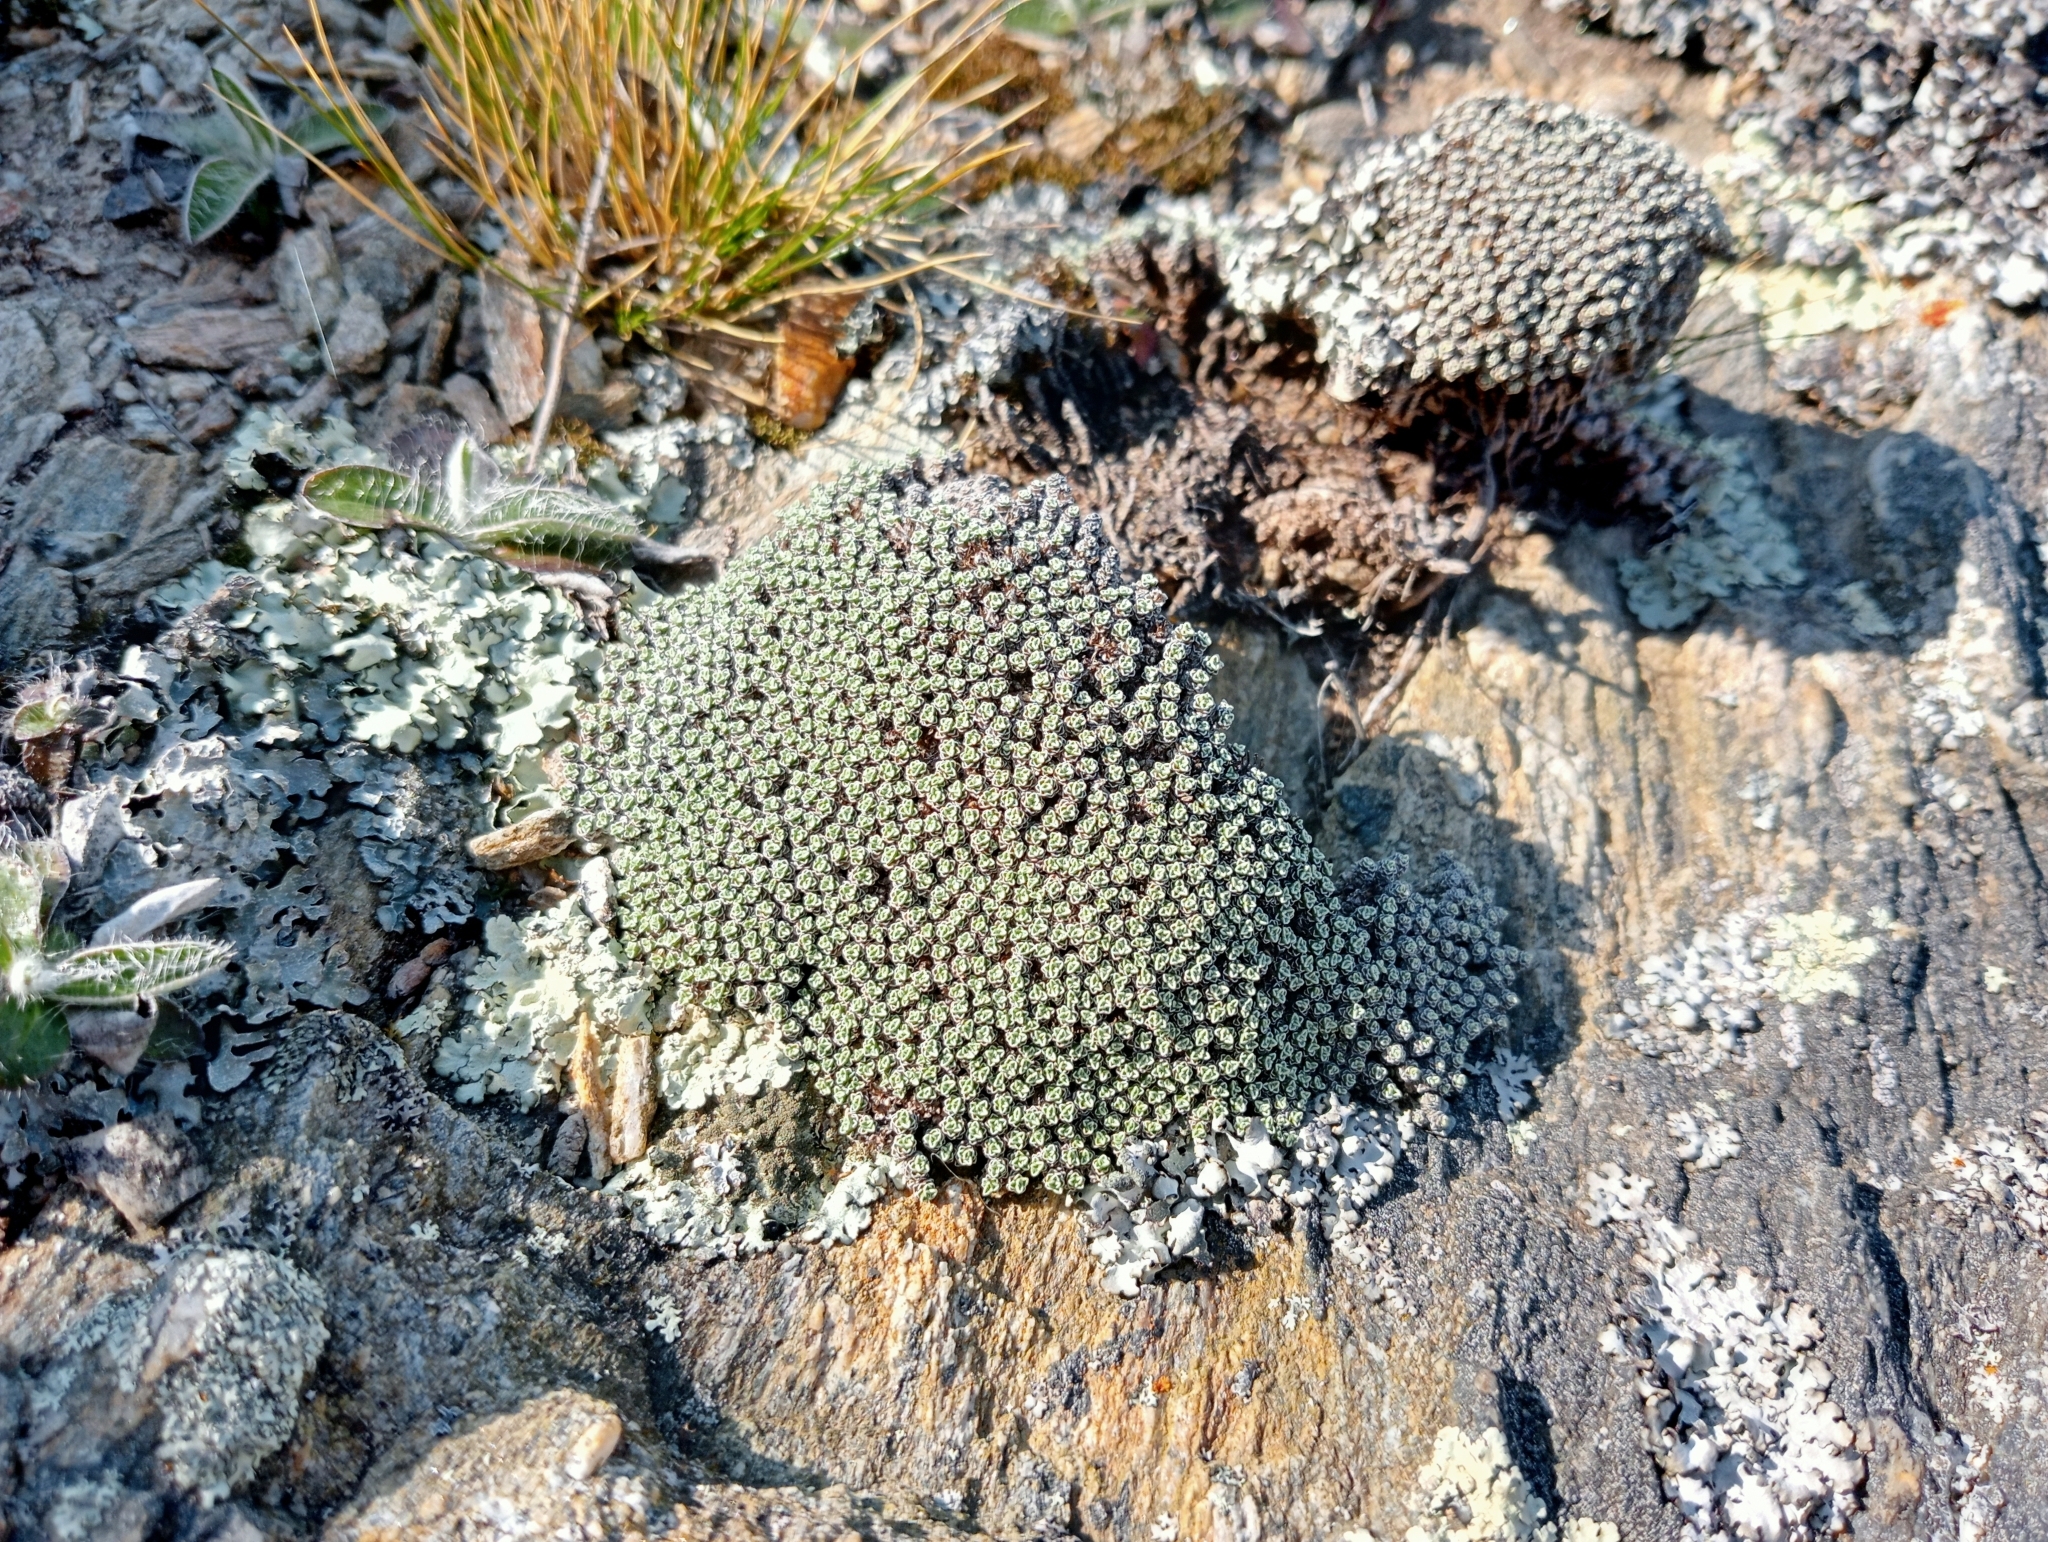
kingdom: Plantae
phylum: Tracheophyta
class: Magnoliopsida
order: Asterales
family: Asteraceae
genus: Raoulia
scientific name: Raoulia australis
